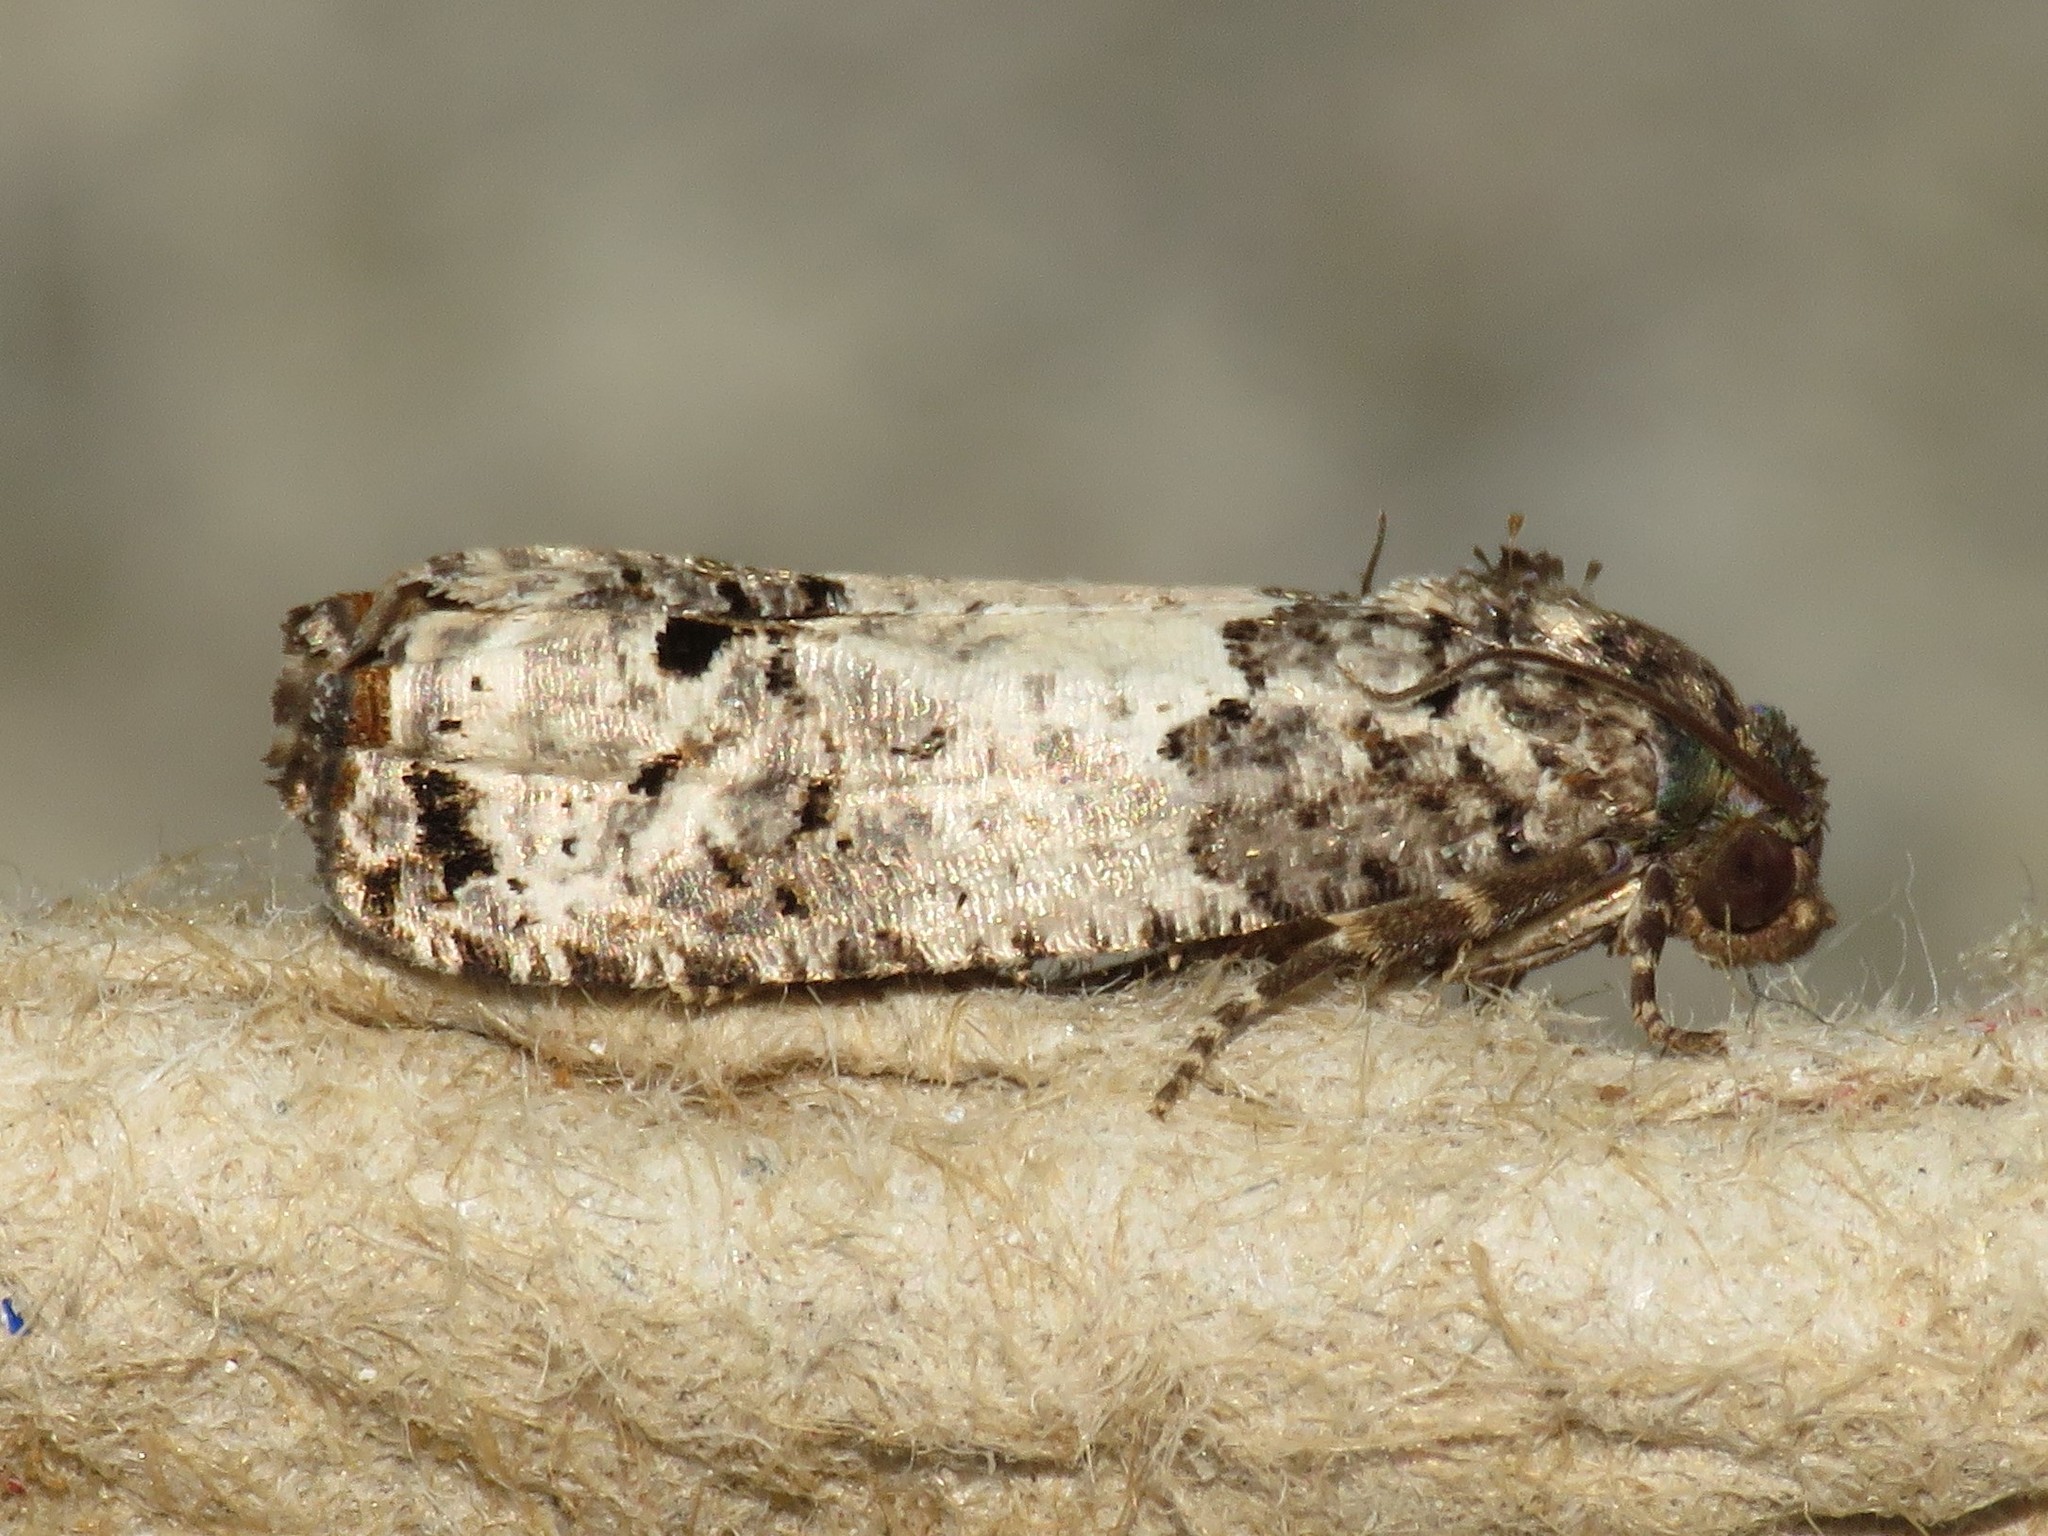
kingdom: Animalia
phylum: Arthropoda
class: Insecta
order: Lepidoptera
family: Tortricidae
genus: Epiblema
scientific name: Epiblema carolinana
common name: Gray-blotched epiblema moth
